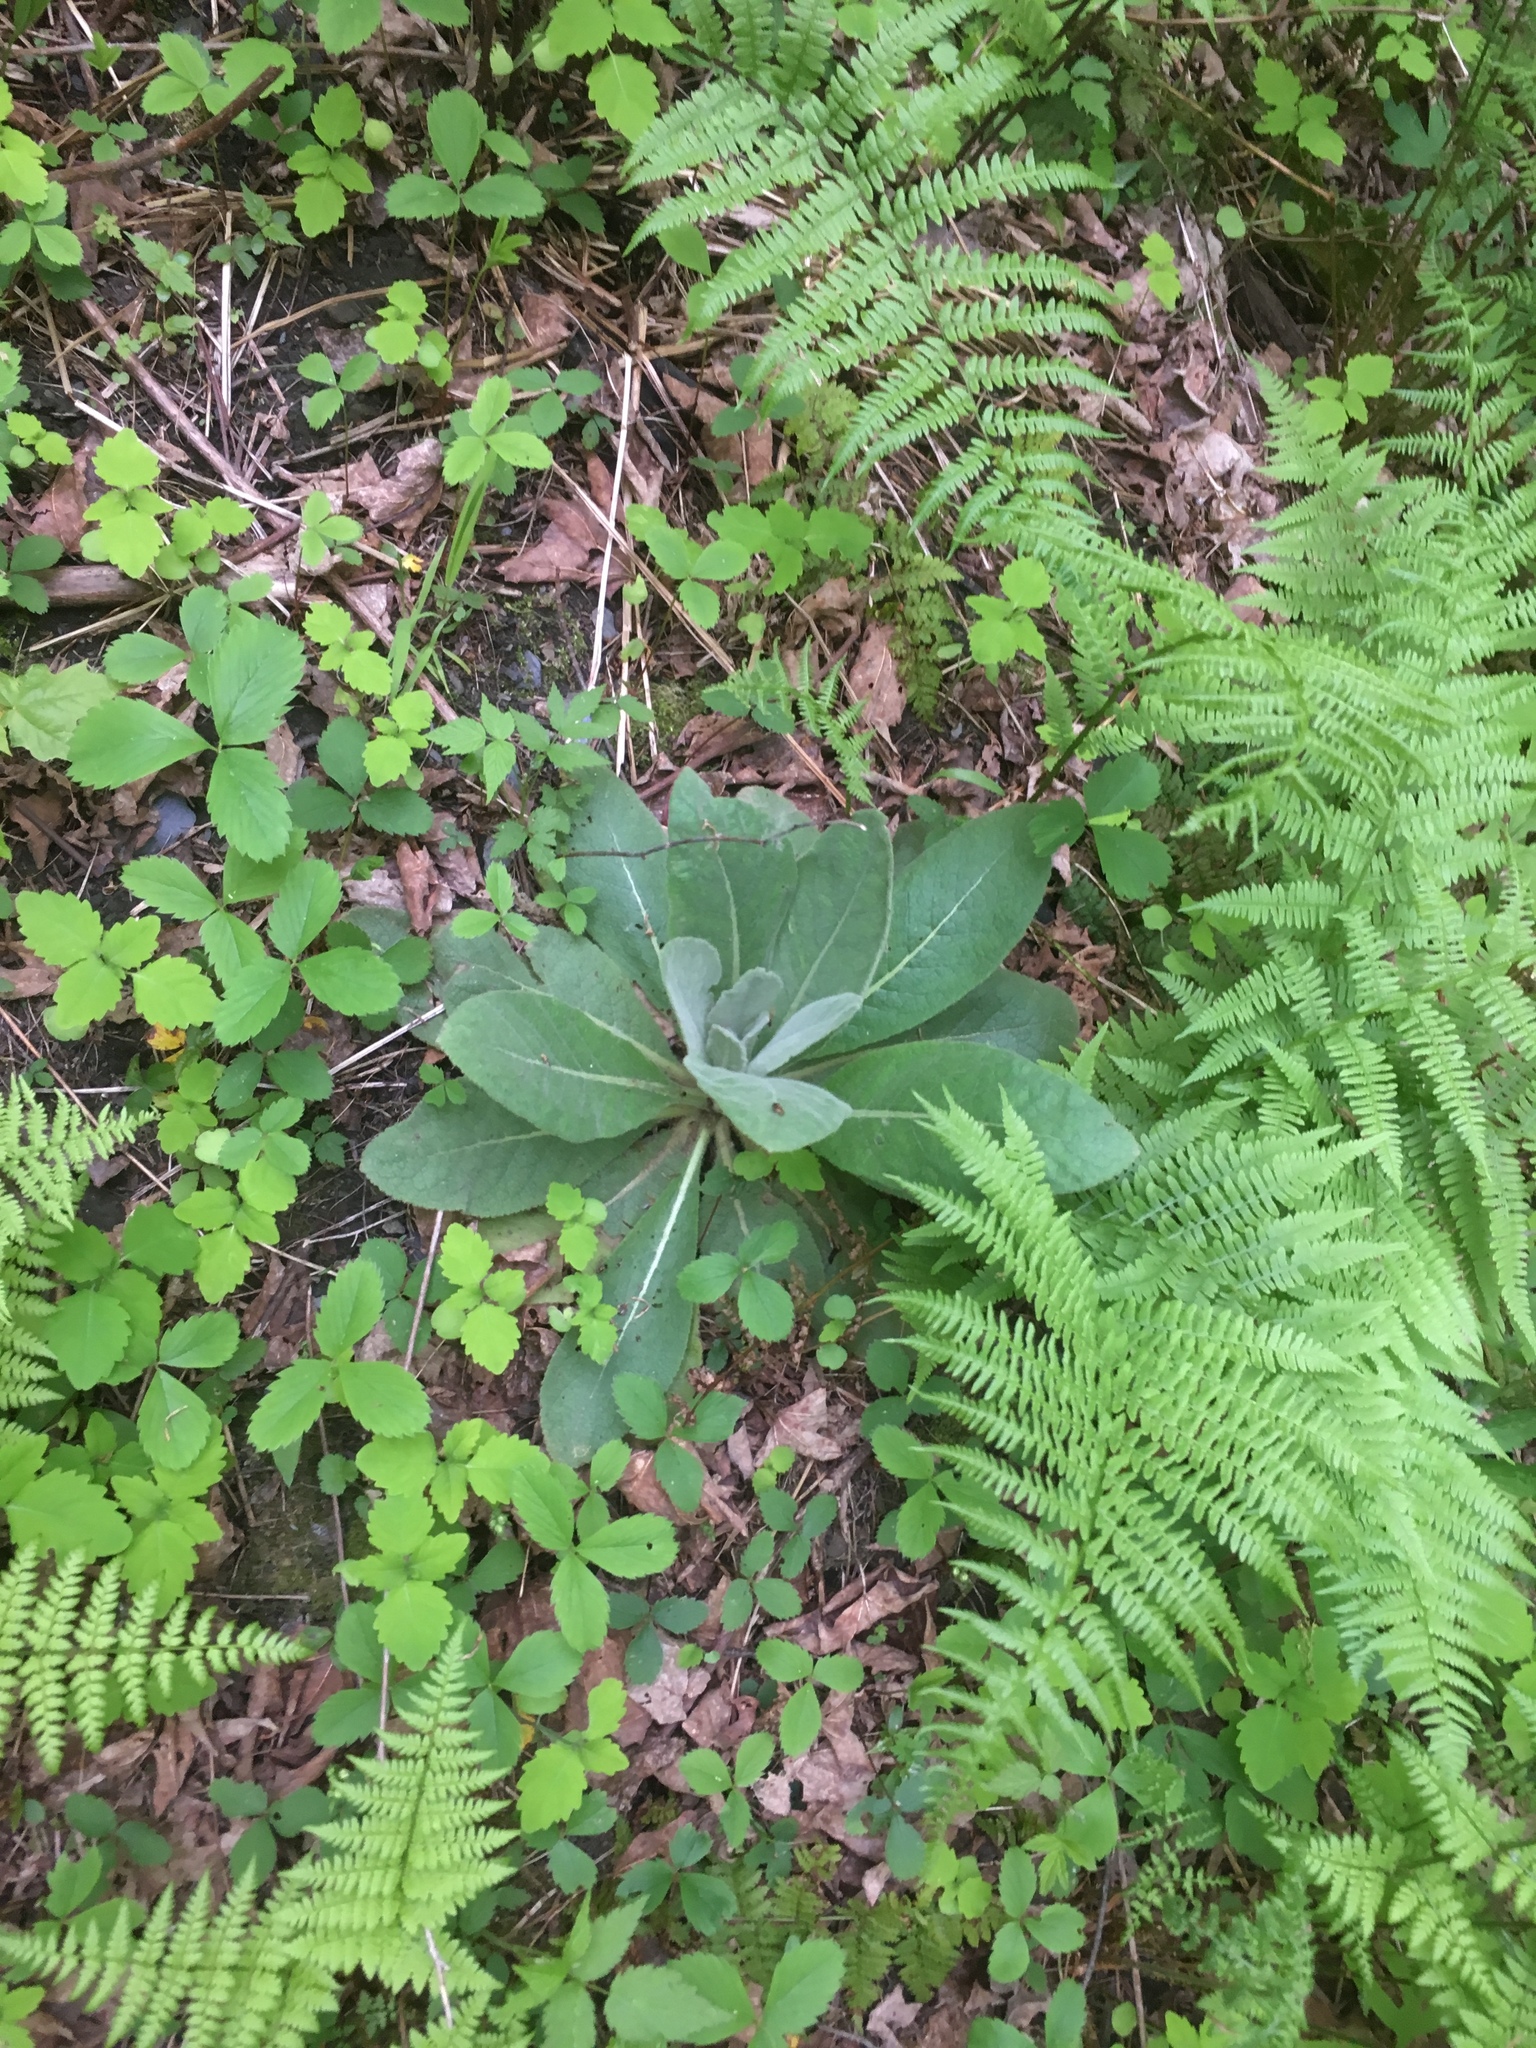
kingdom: Plantae
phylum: Tracheophyta
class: Magnoliopsida
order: Lamiales
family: Scrophulariaceae
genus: Verbascum
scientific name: Verbascum thapsus
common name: Common mullein
